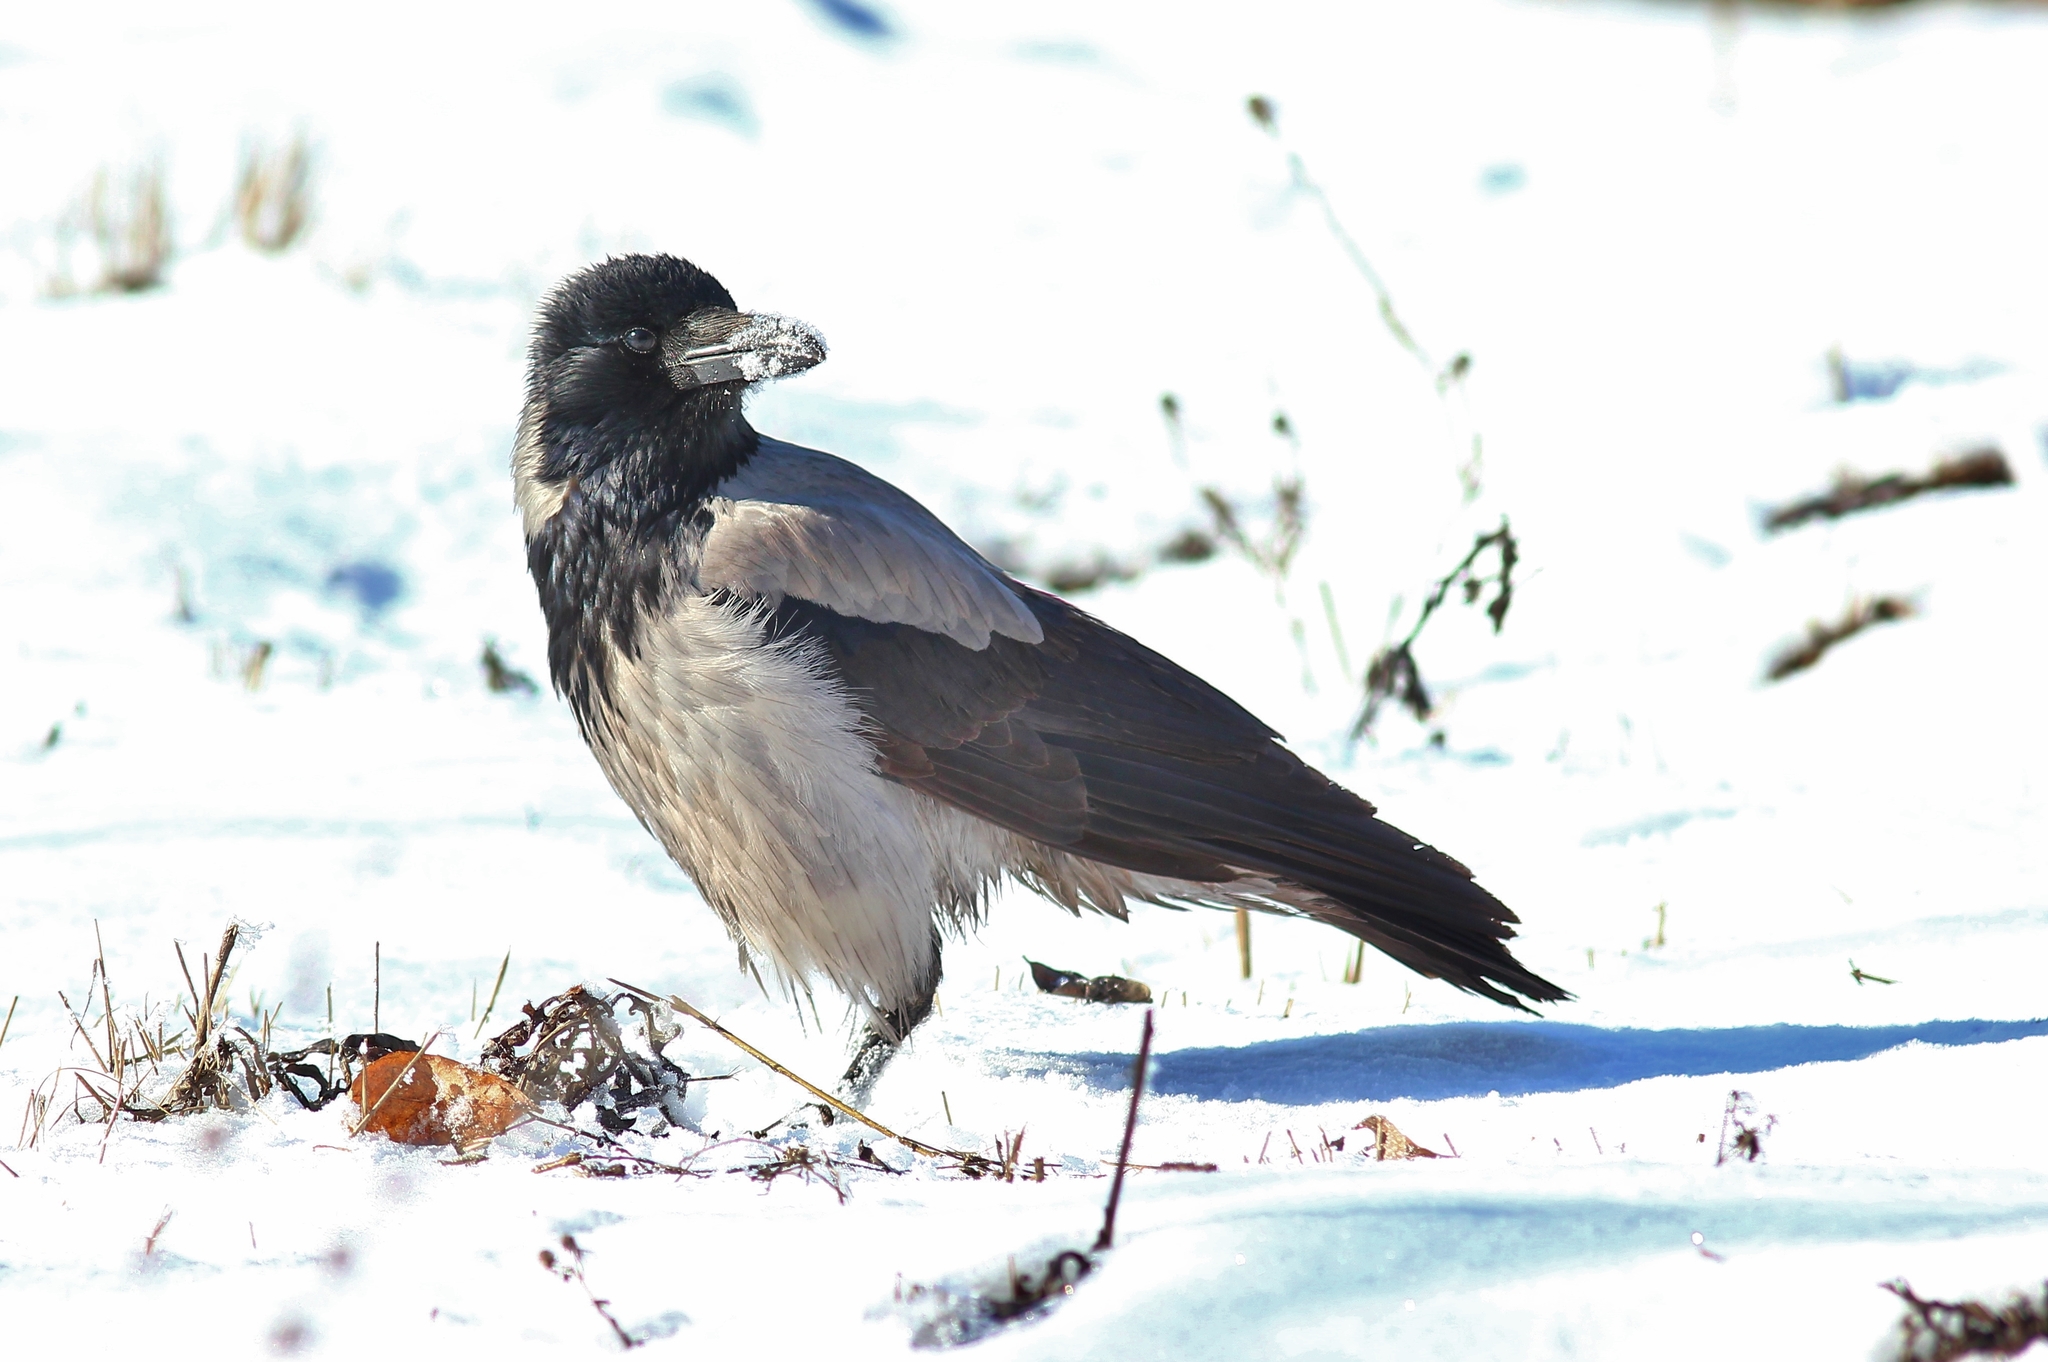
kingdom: Animalia
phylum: Chordata
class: Aves
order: Passeriformes
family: Corvidae
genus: Corvus
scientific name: Corvus cornix
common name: Hooded crow
